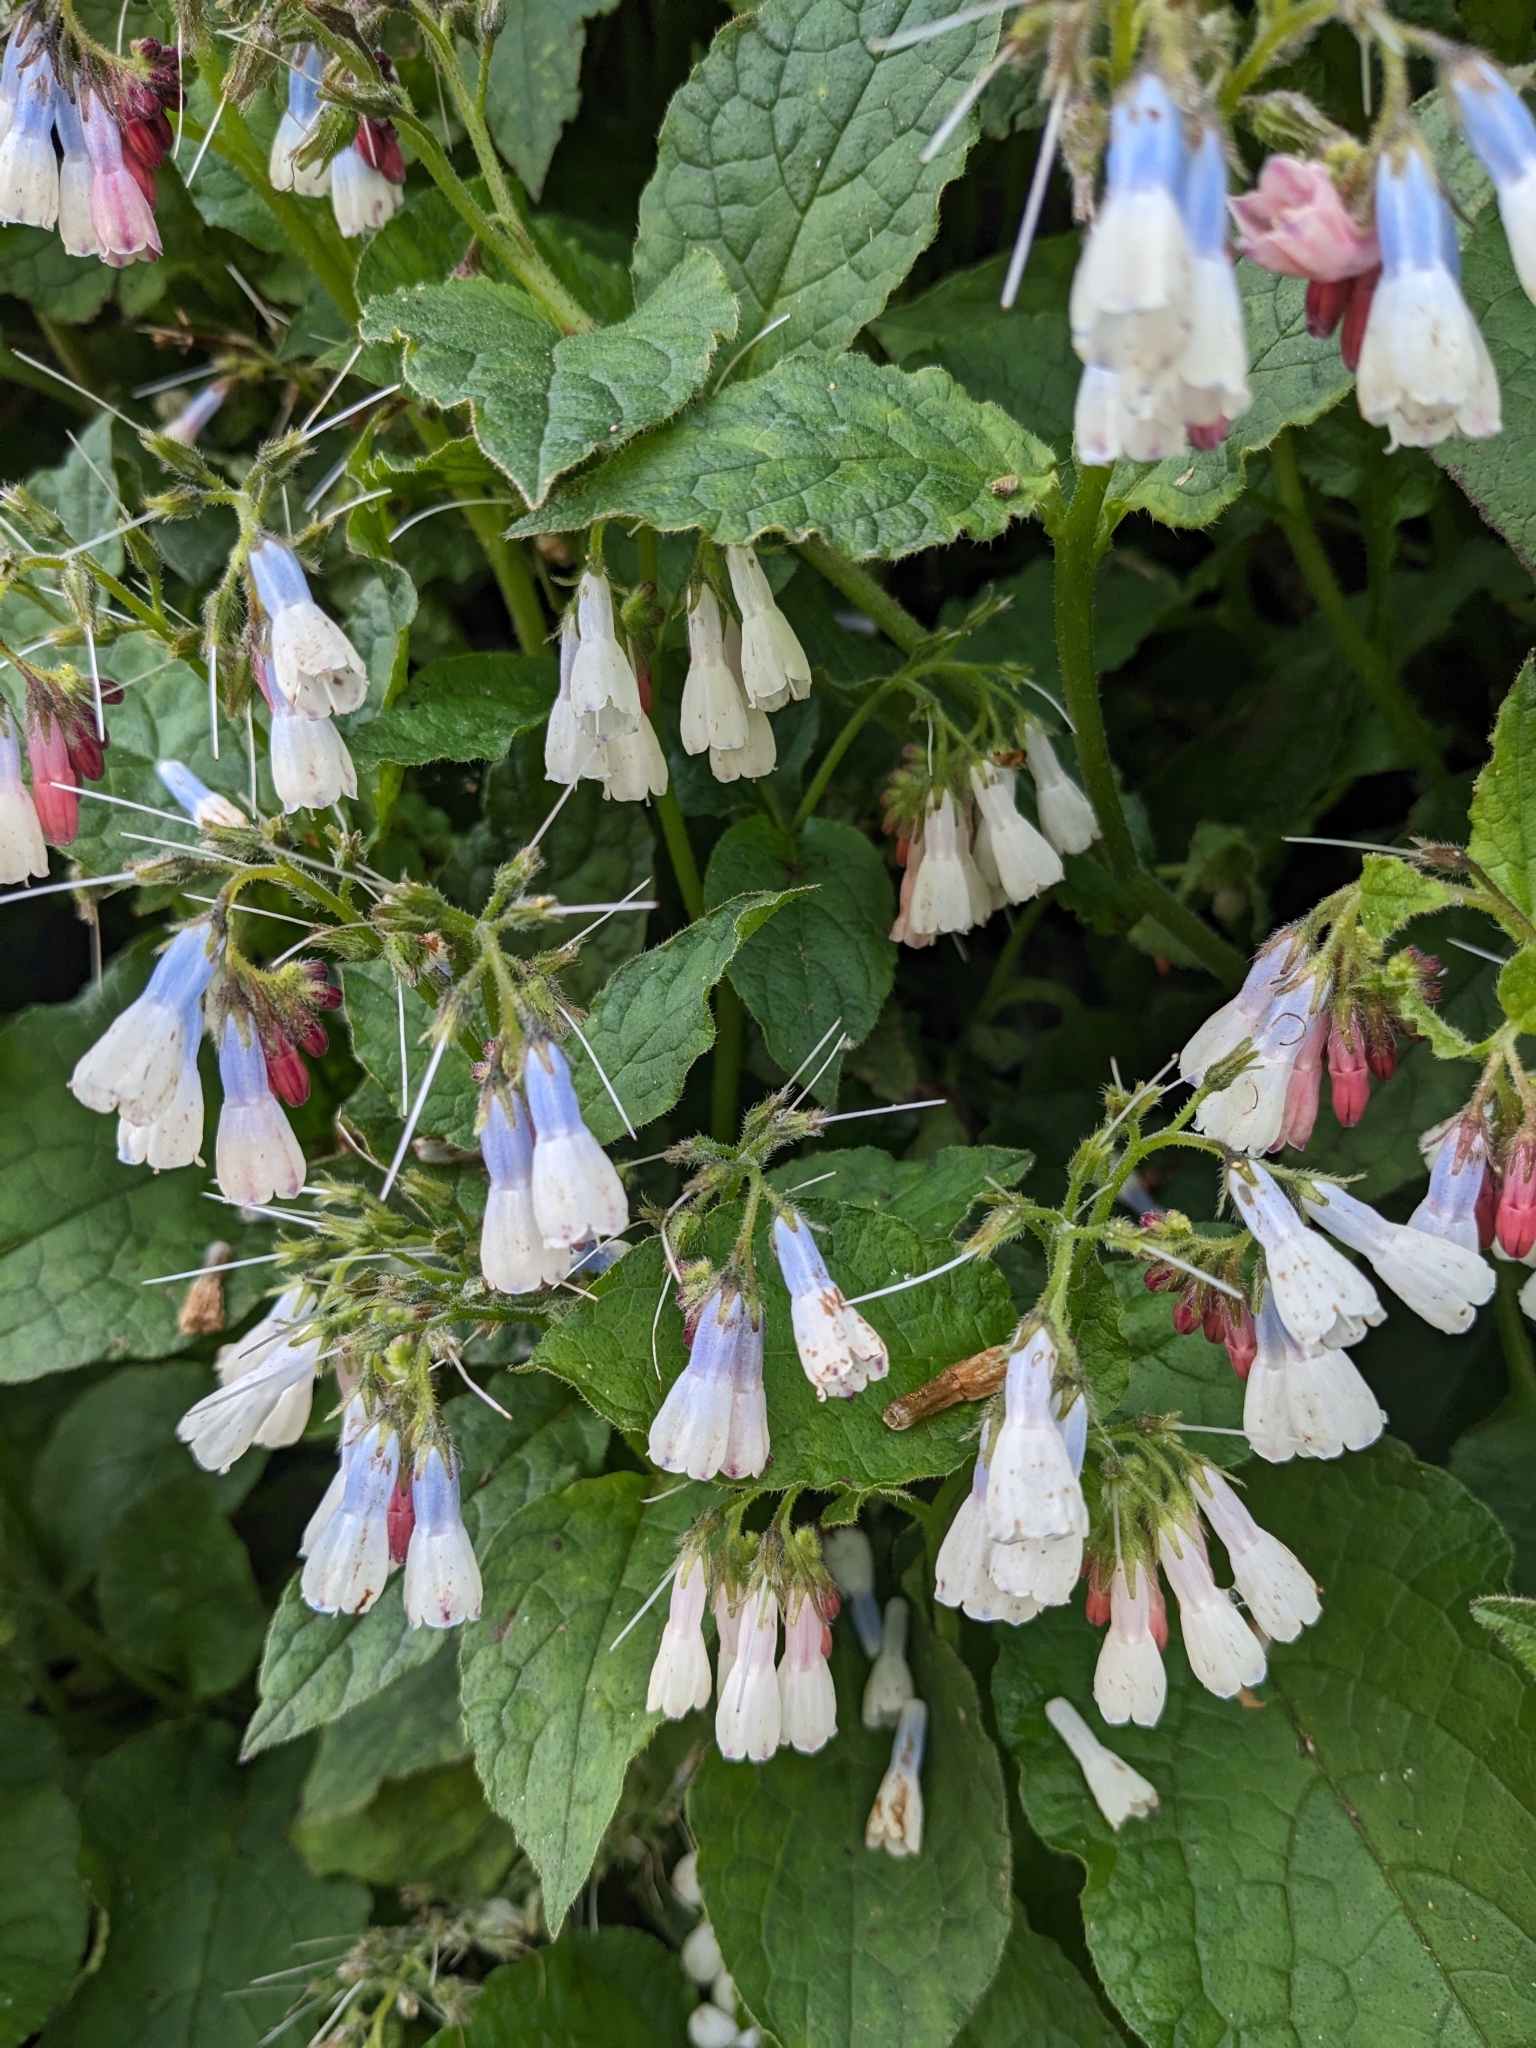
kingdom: Plantae
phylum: Tracheophyta
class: Magnoliopsida
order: Boraginales
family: Boraginaceae
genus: Symphytum
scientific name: Symphytum hidcotense
